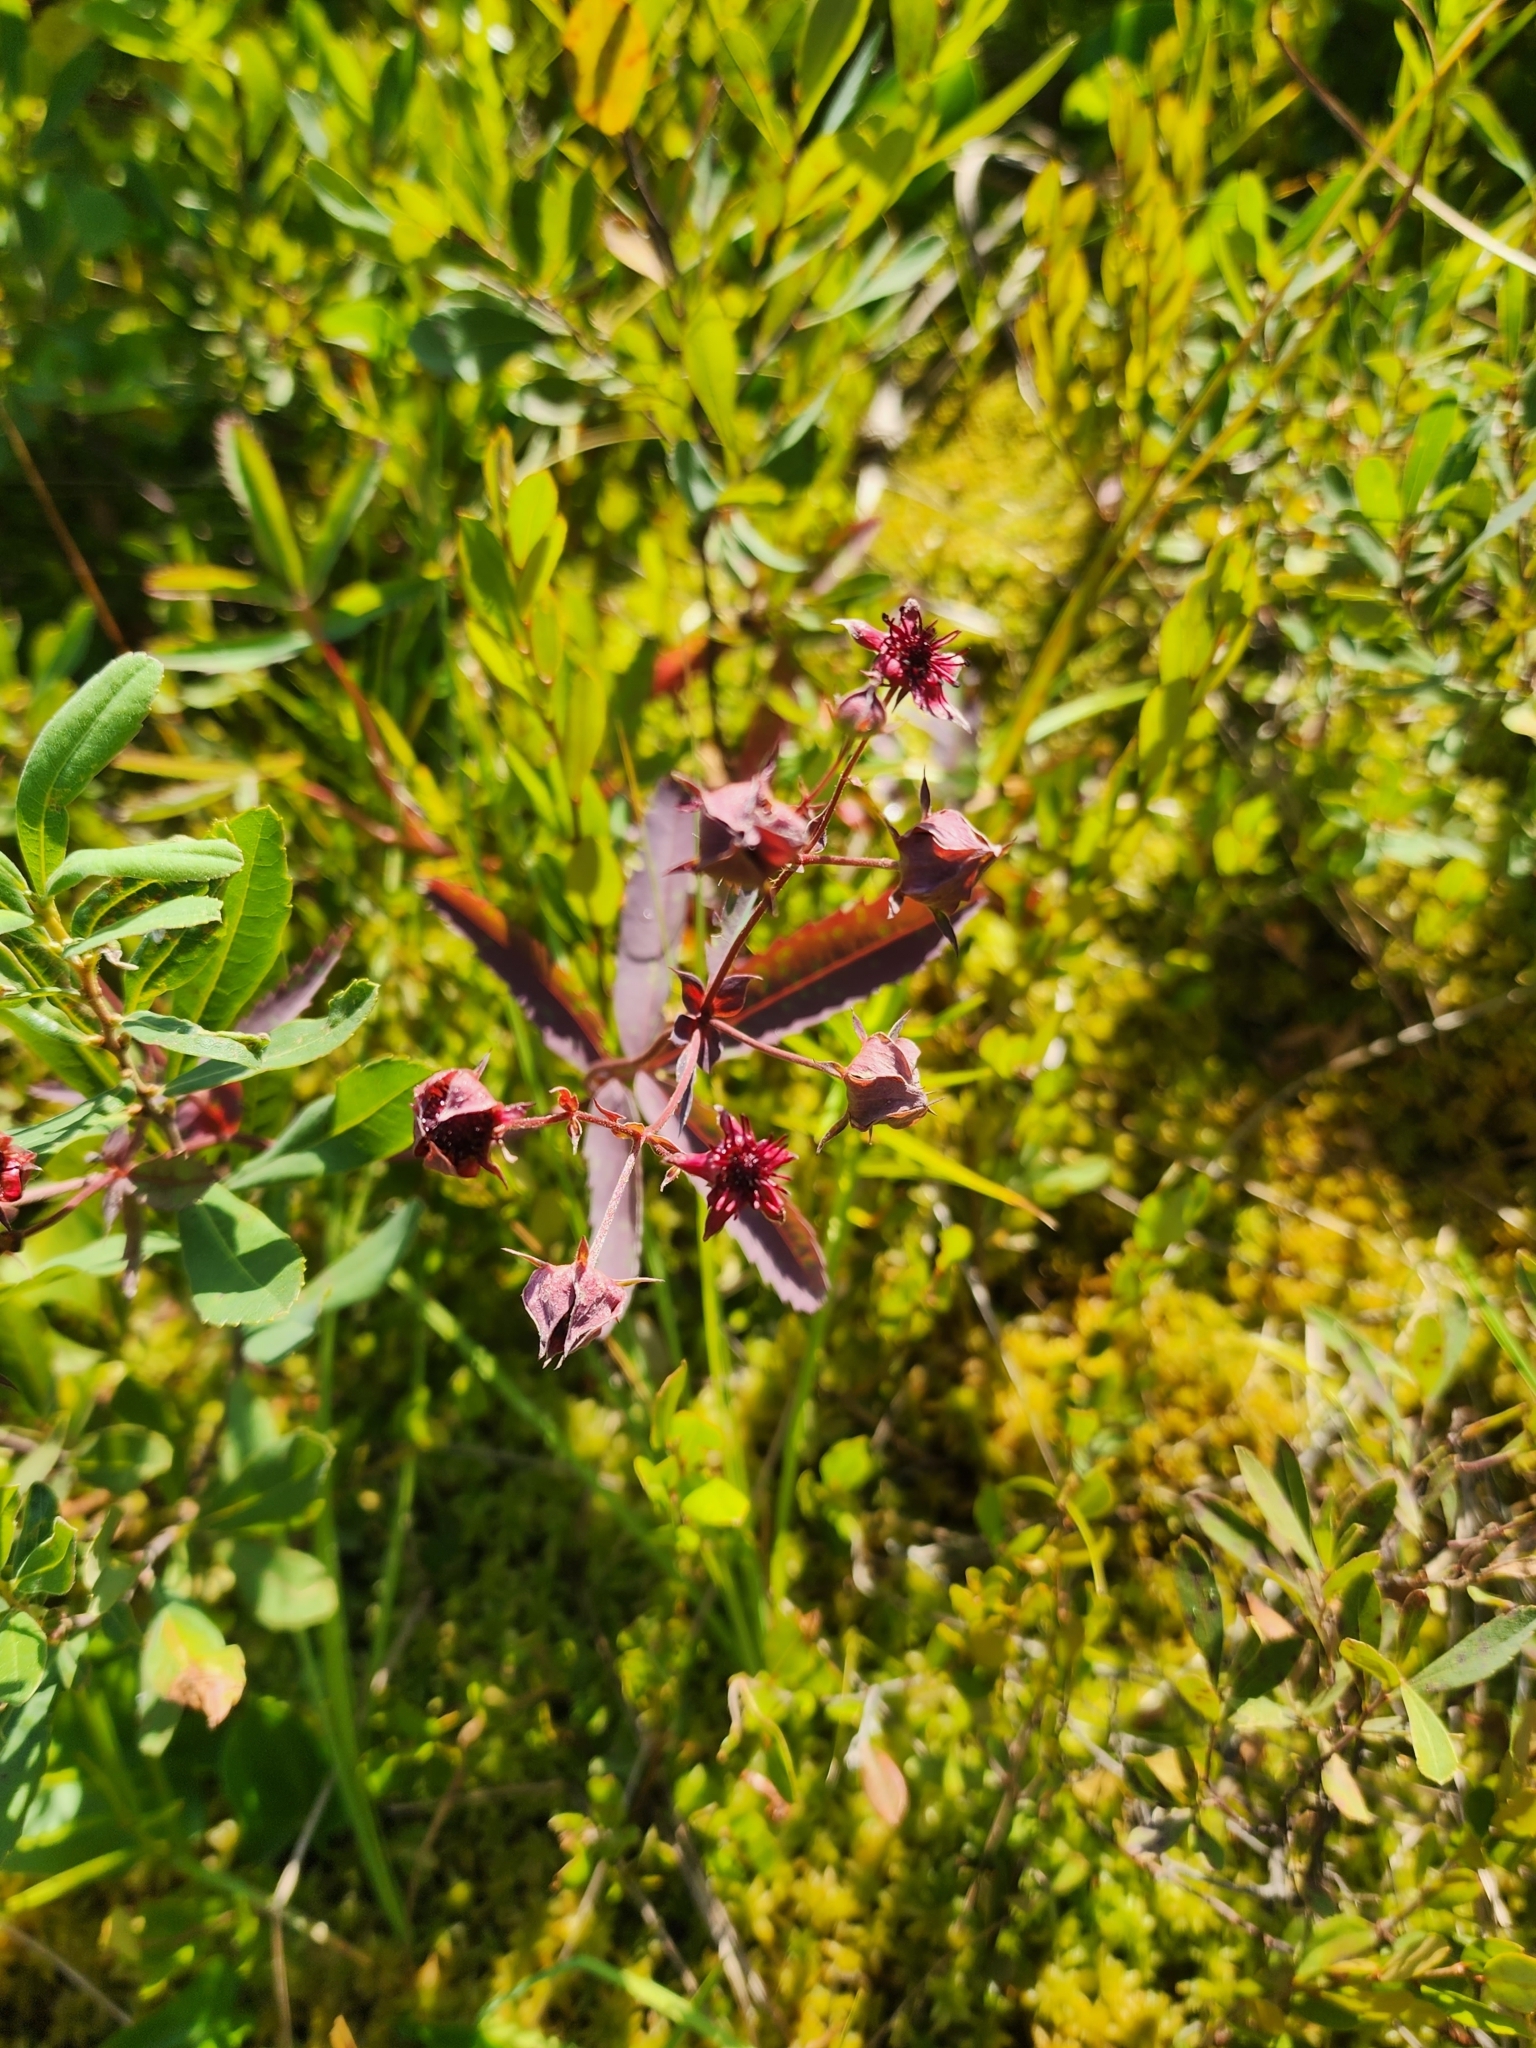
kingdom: Plantae
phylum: Tracheophyta
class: Magnoliopsida
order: Rosales
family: Rosaceae
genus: Comarum
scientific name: Comarum palustre
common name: Marsh cinquefoil
